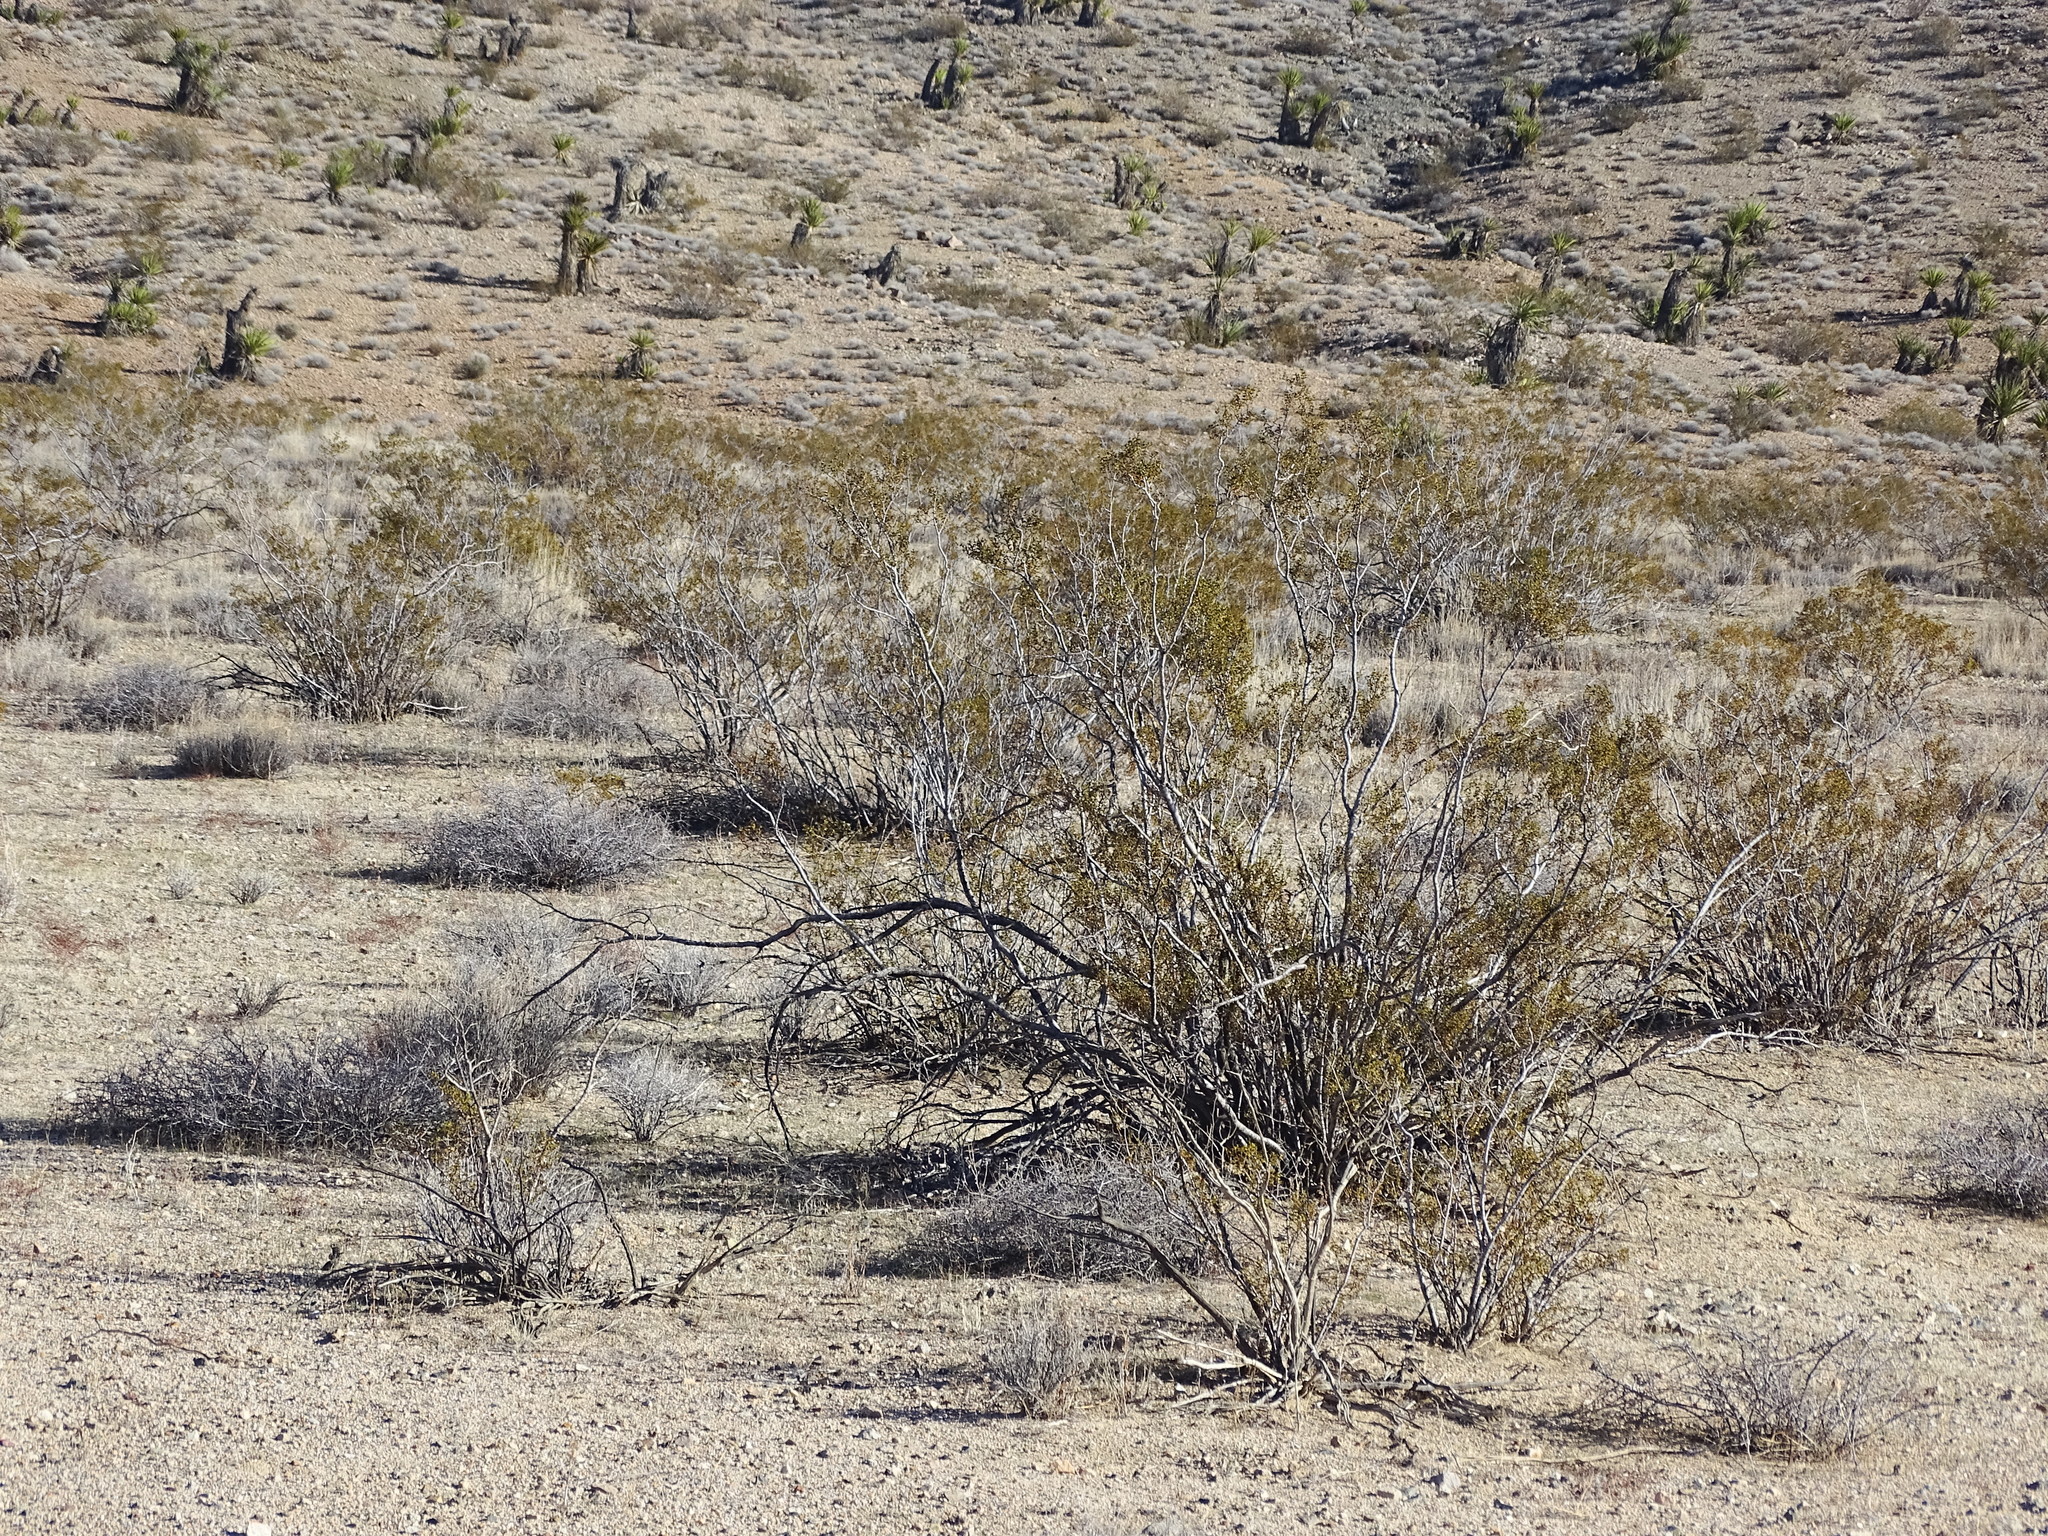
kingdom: Plantae
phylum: Tracheophyta
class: Magnoliopsida
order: Zygophyllales
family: Zygophyllaceae
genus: Larrea
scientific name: Larrea tridentata
